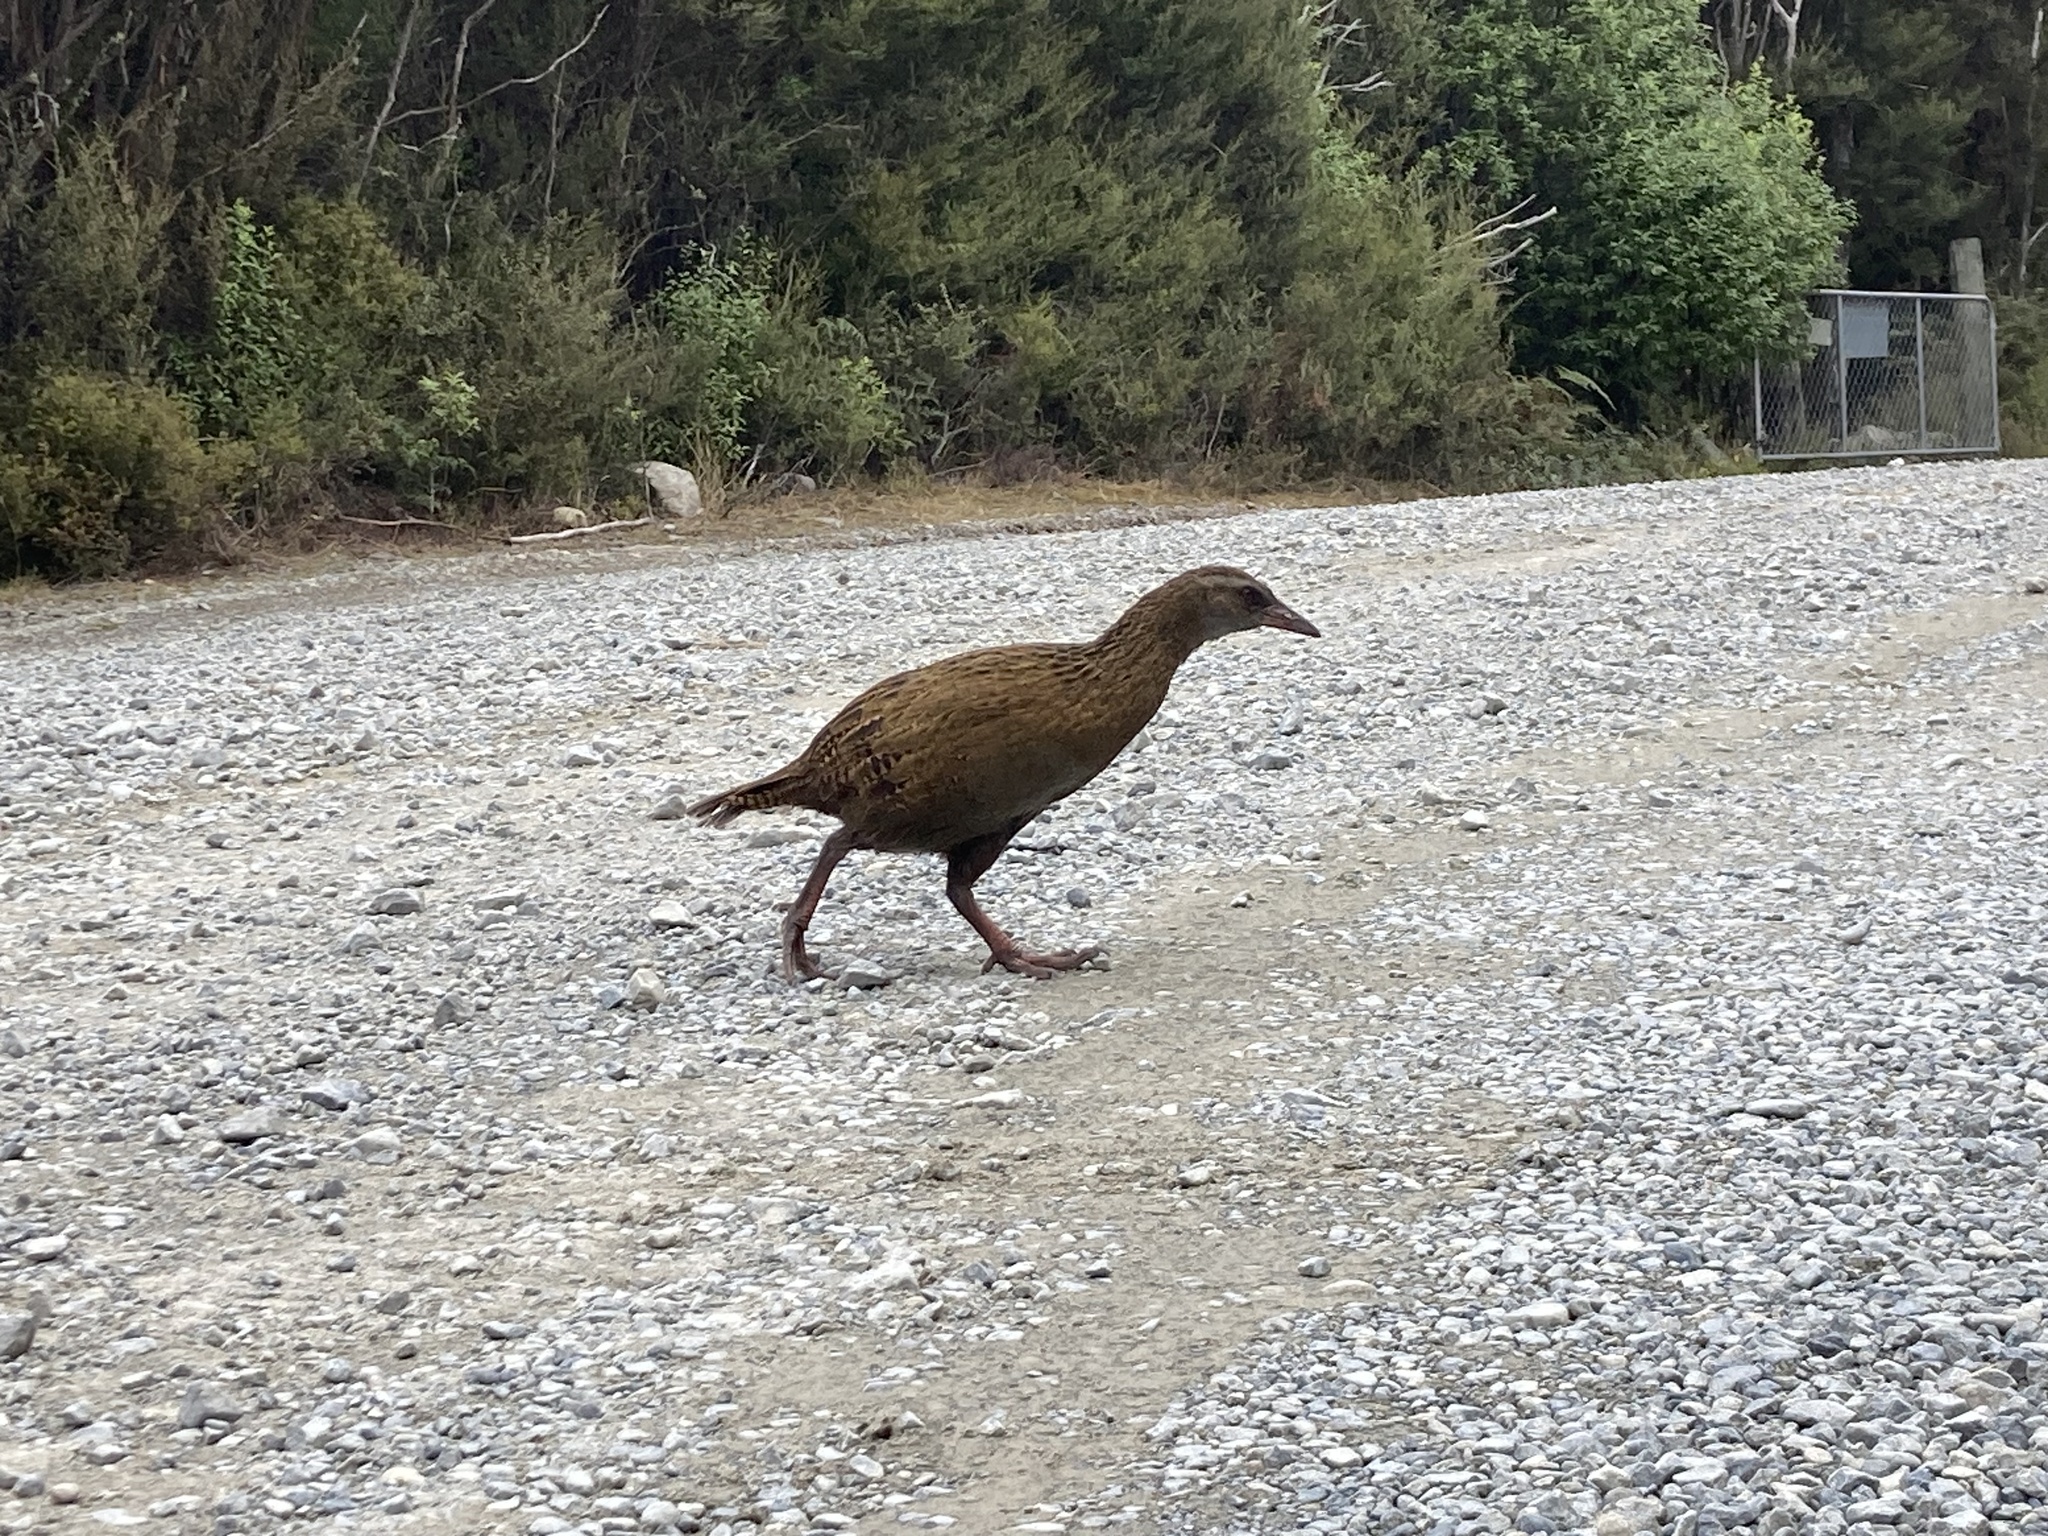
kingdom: Animalia
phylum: Chordata
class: Aves
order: Gruiformes
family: Rallidae
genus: Gallirallus
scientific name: Gallirallus australis
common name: Weka
